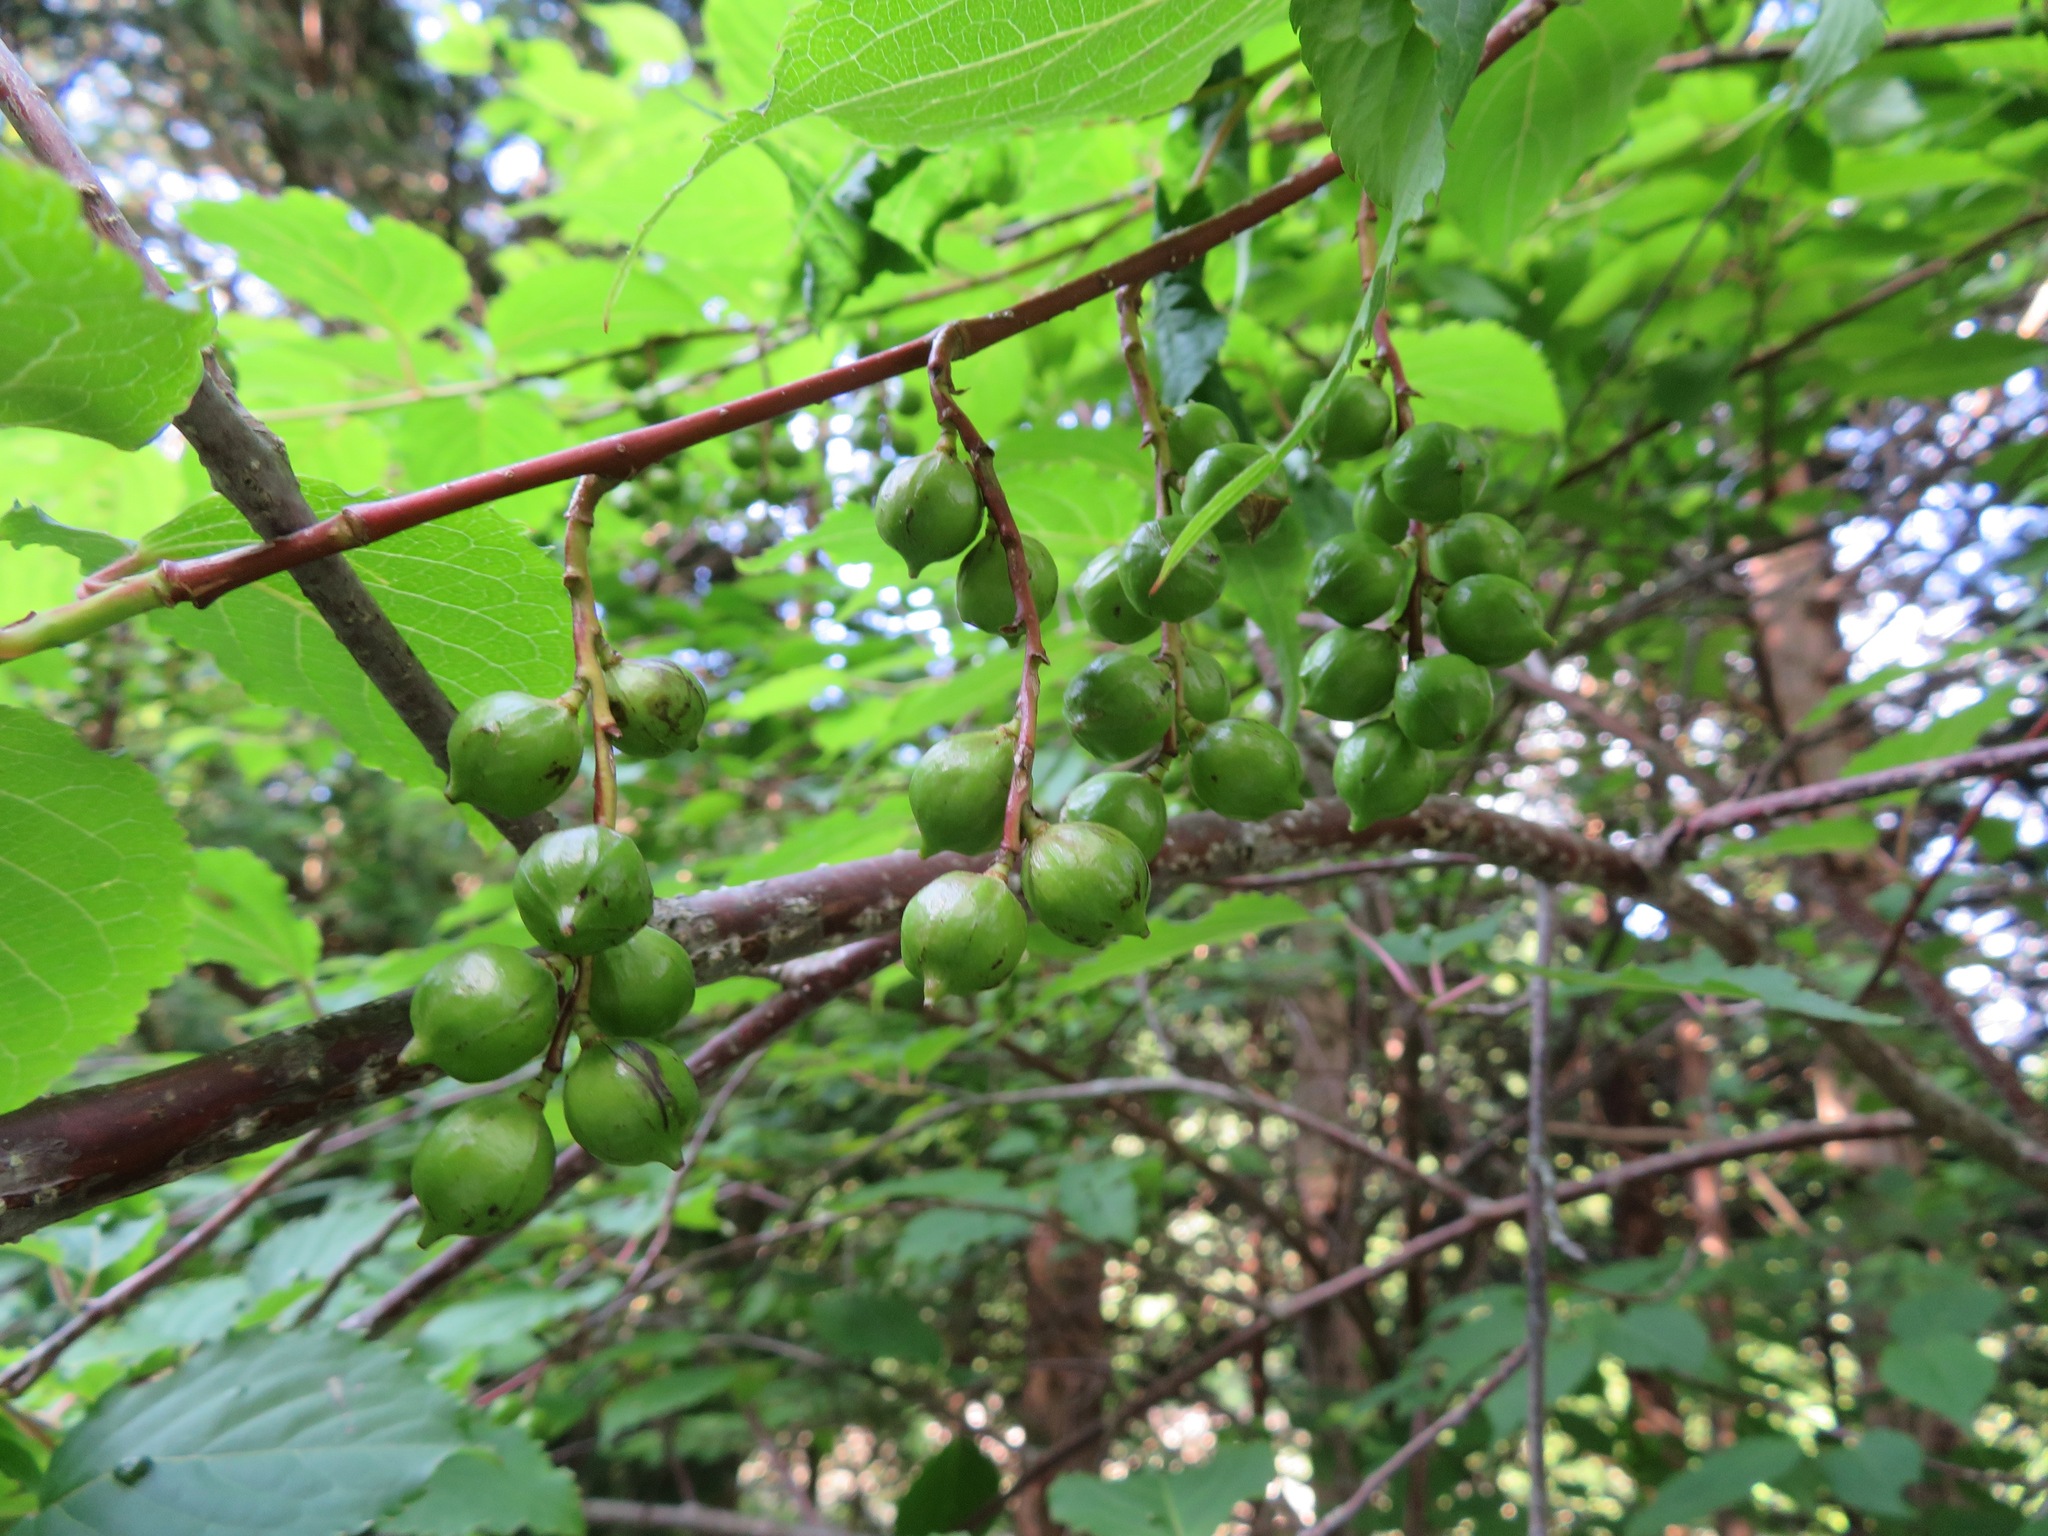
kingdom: Plantae
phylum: Tracheophyta
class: Magnoliopsida
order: Crossosomatales
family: Stachyuraceae
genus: Stachyurus
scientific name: Stachyurus praecox
